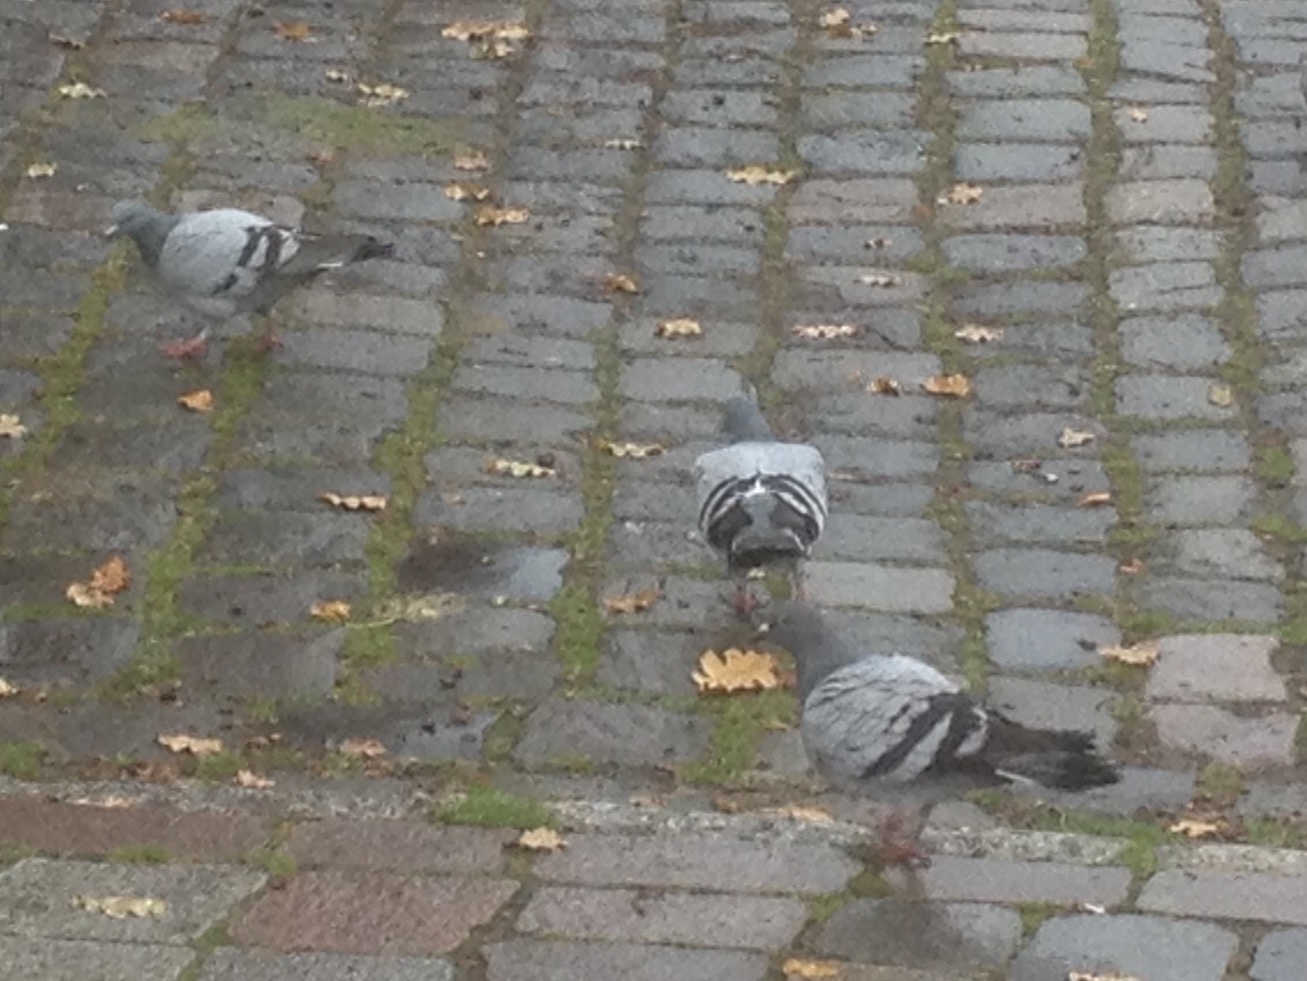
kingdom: Animalia
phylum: Chordata
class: Aves
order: Columbiformes
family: Columbidae
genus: Columba
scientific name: Columba livia
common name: Rock pigeon
